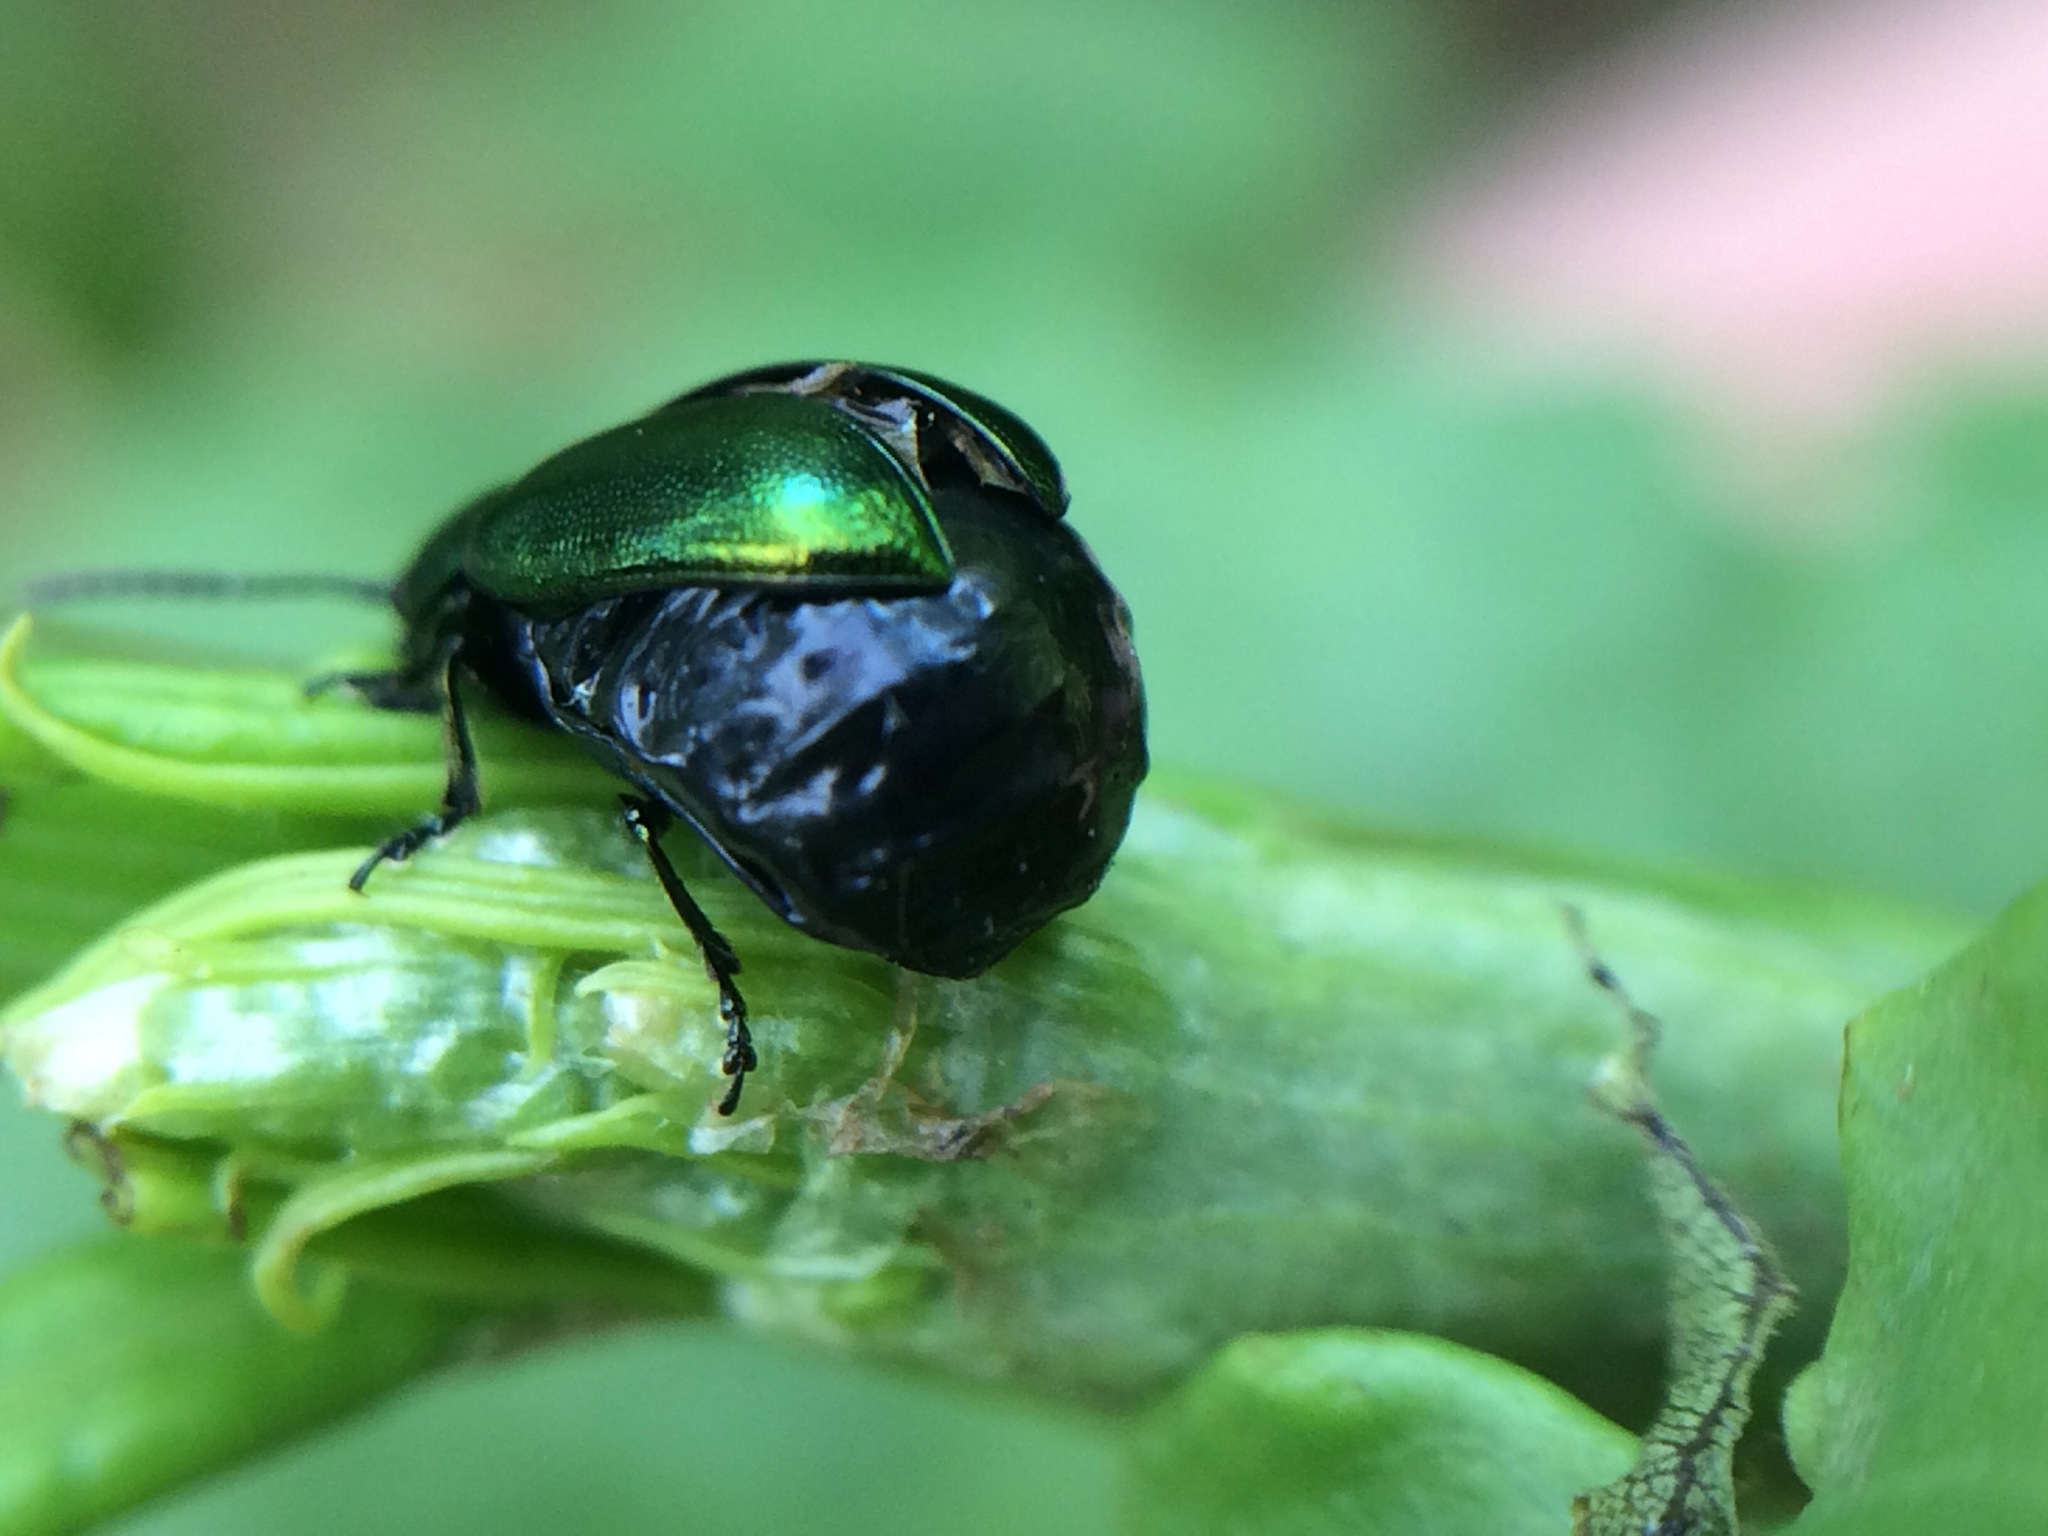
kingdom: Animalia
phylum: Arthropoda
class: Insecta
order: Coleoptera
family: Chrysomelidae
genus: Gastrophysa
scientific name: Gastrophysa cyanea
